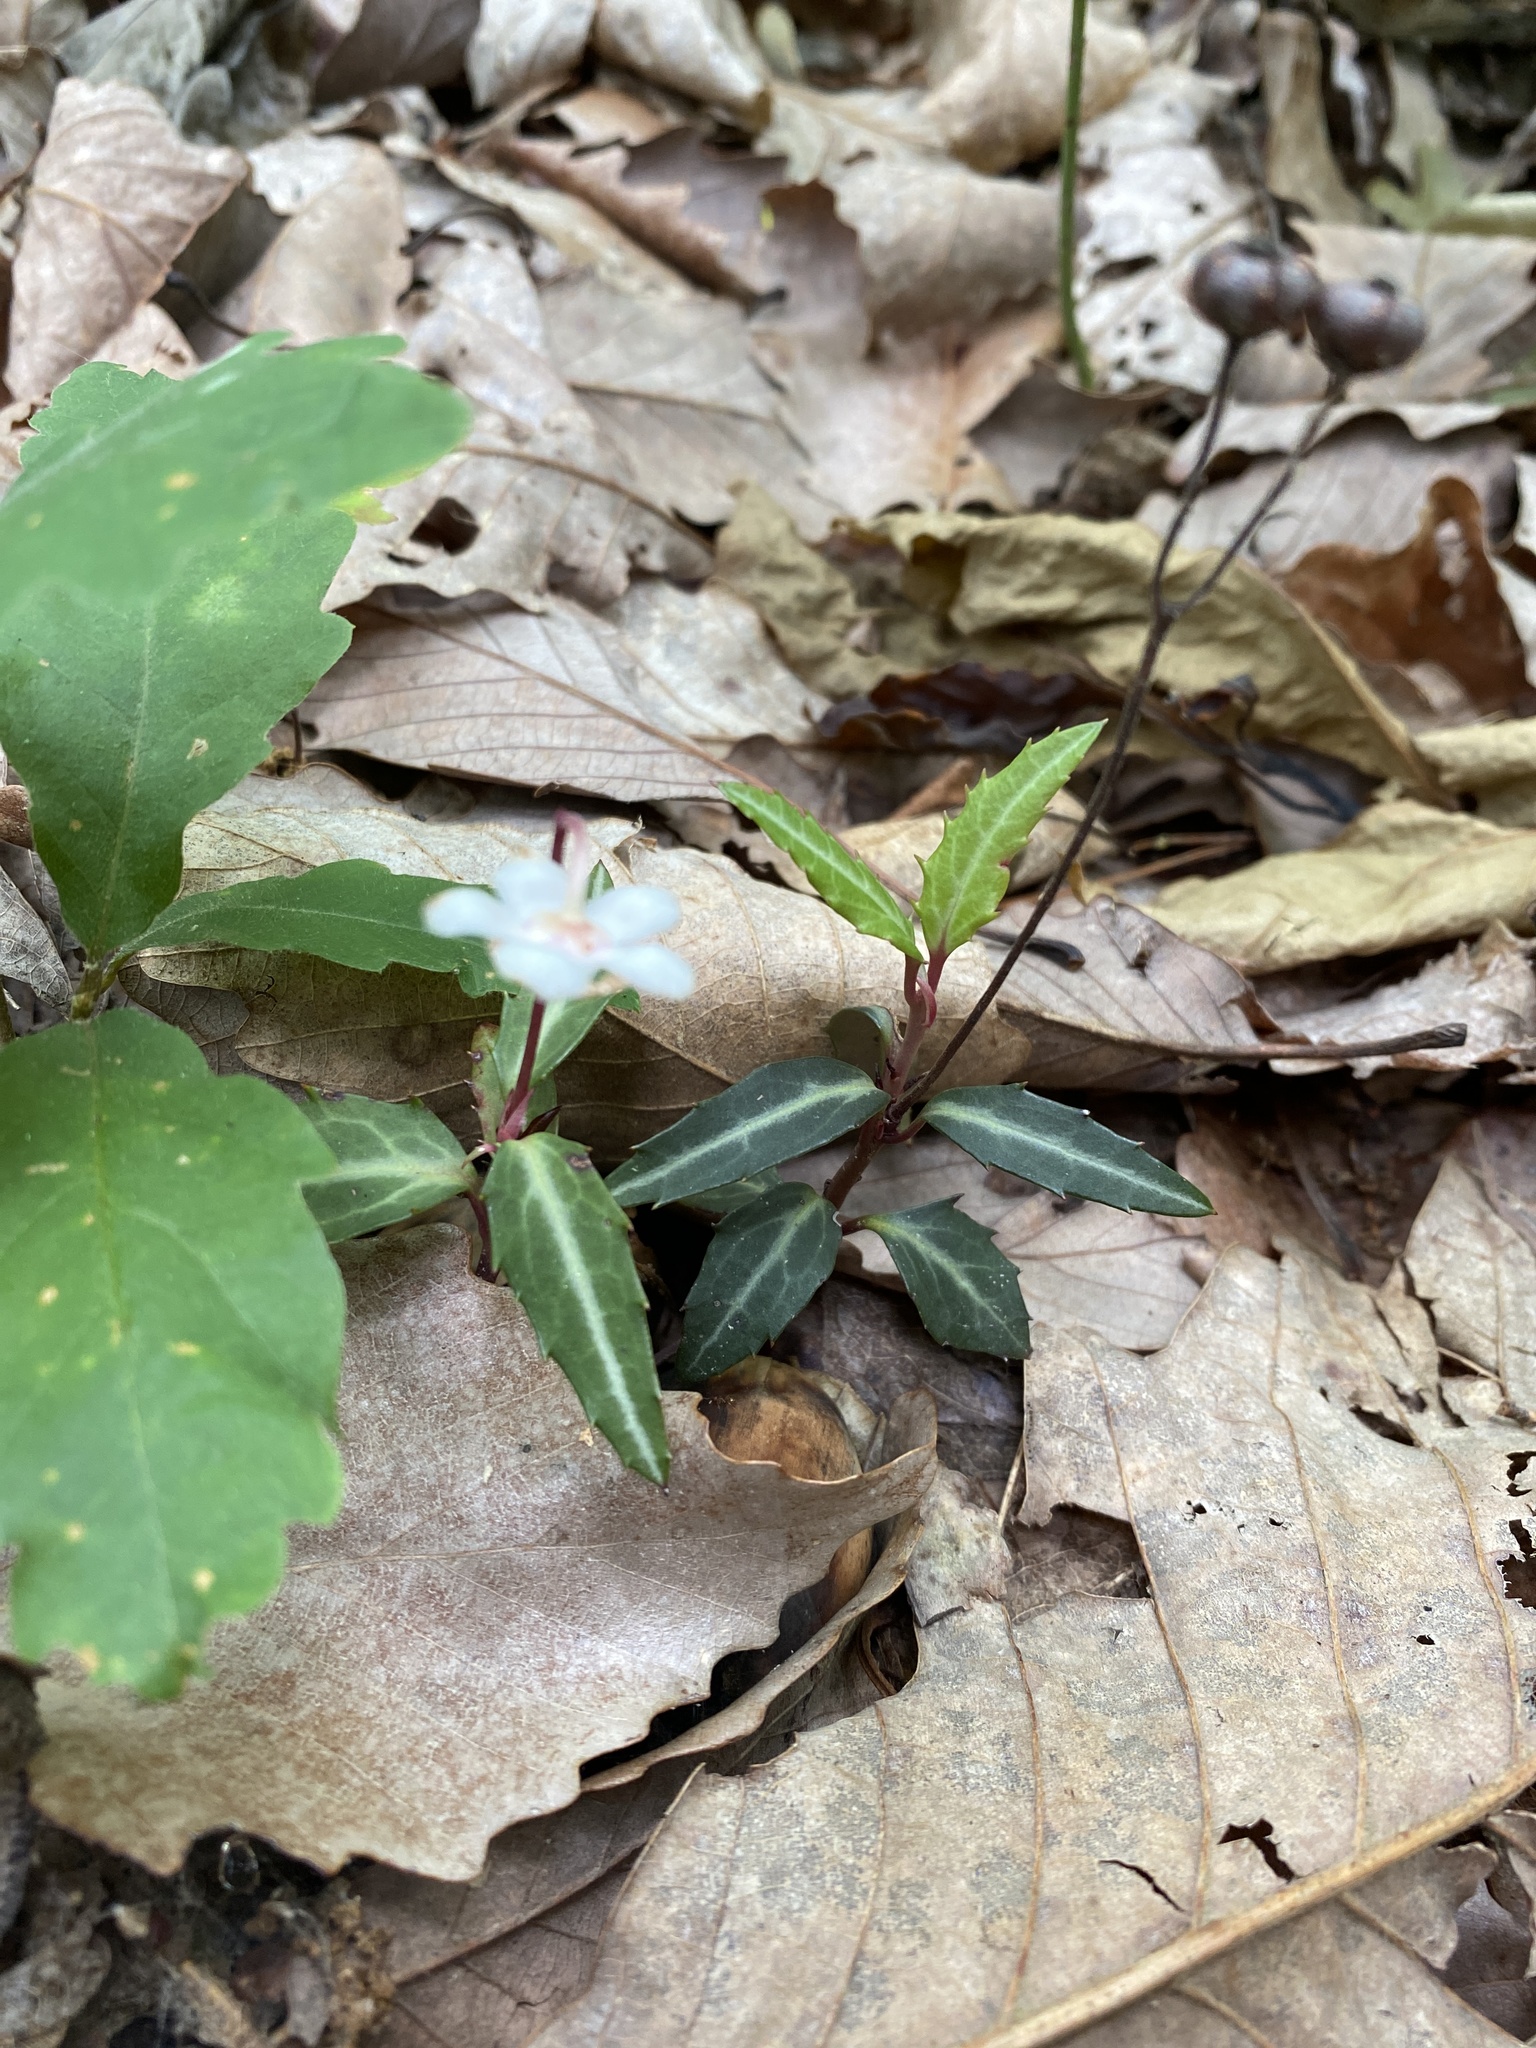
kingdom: Plantae
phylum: Tracheophyta
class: Magnoliopsida
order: Ericales
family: Ericaceae
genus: Chimaphila
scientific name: Chimaphila maculata
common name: Spotted pipsissewa
